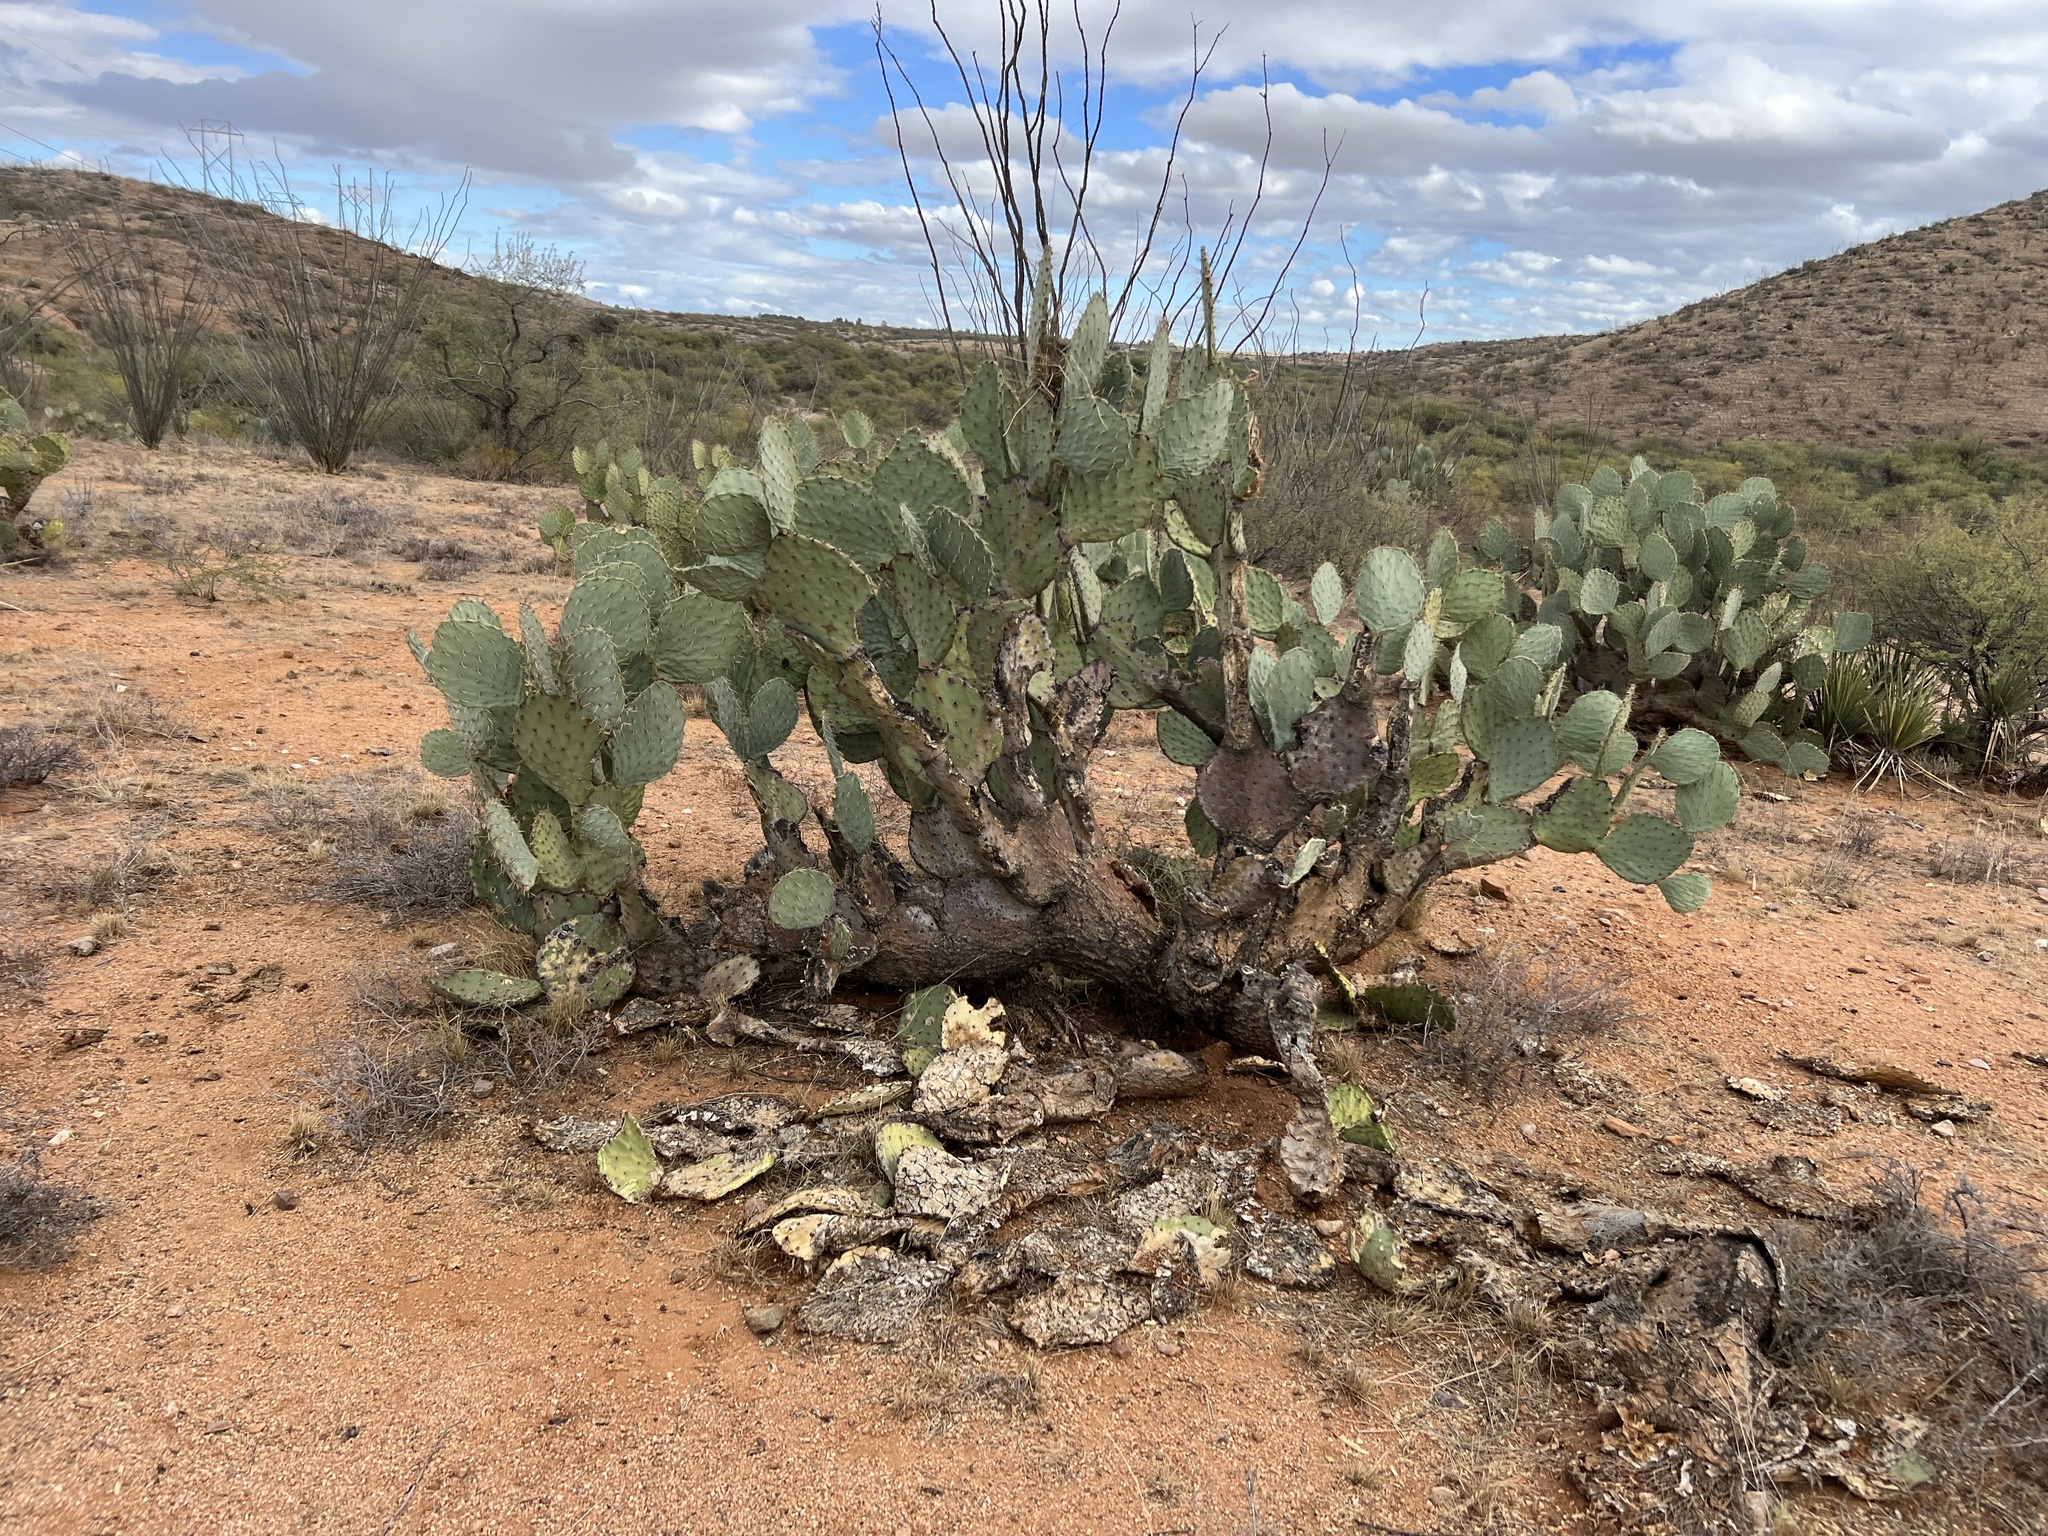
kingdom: Plantae
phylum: Tracheophyta
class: Magnoliopsida
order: Caryophyllales
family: Cactaceae
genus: Opuntia
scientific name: Opuntia engelmannii
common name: Cactus-apple
